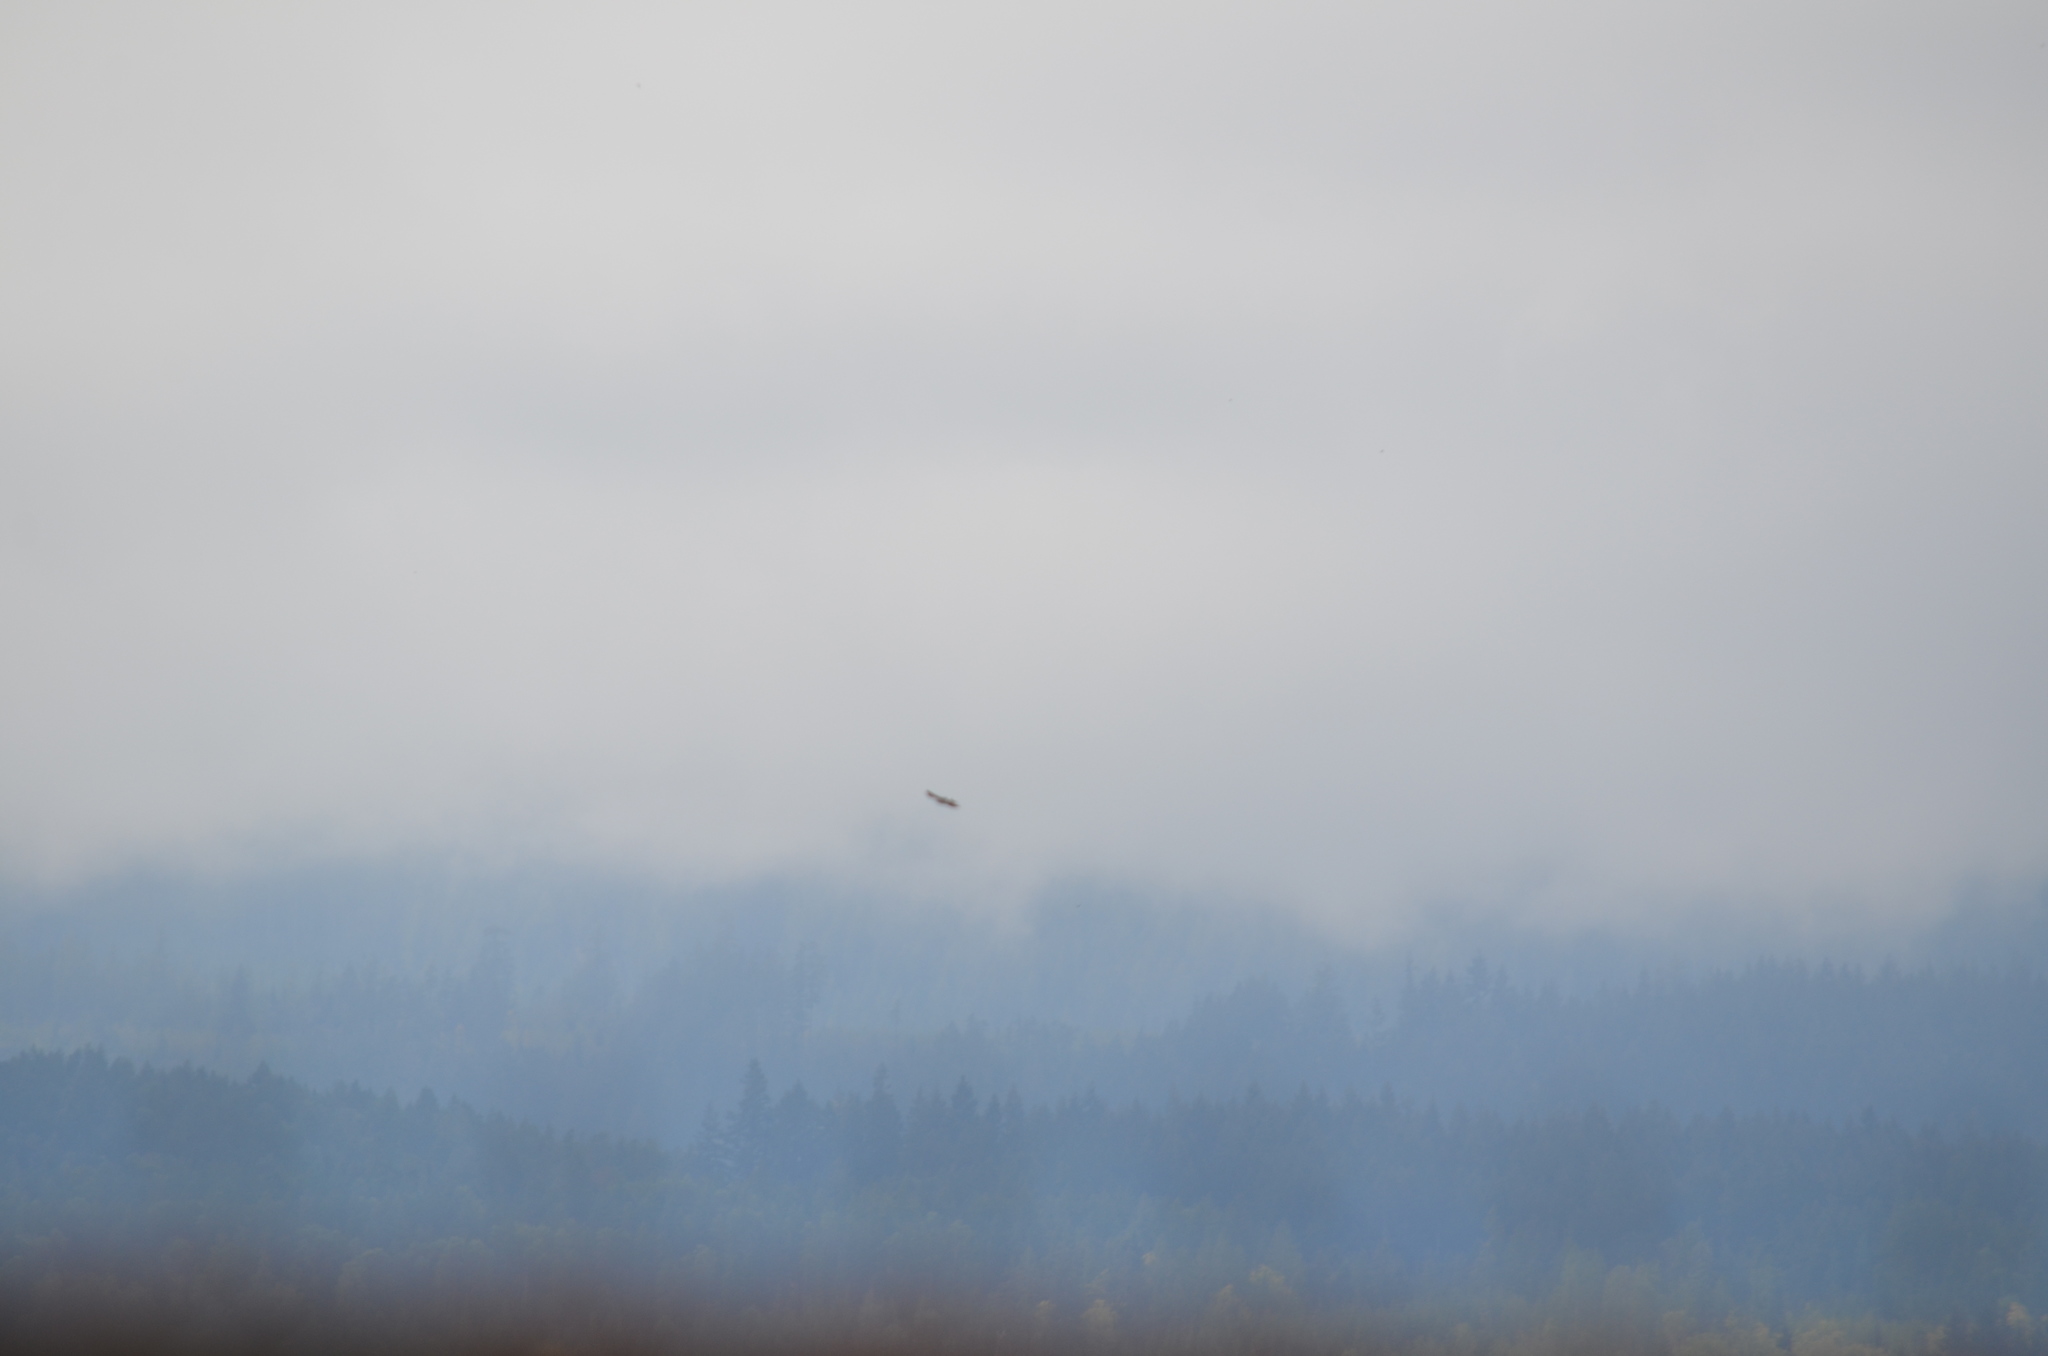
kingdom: Animalia
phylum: Chordata
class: Aves
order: Passeriformes
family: Hirundinidae
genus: Hirundo
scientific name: Hirundo rustica
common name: Barn swallow
